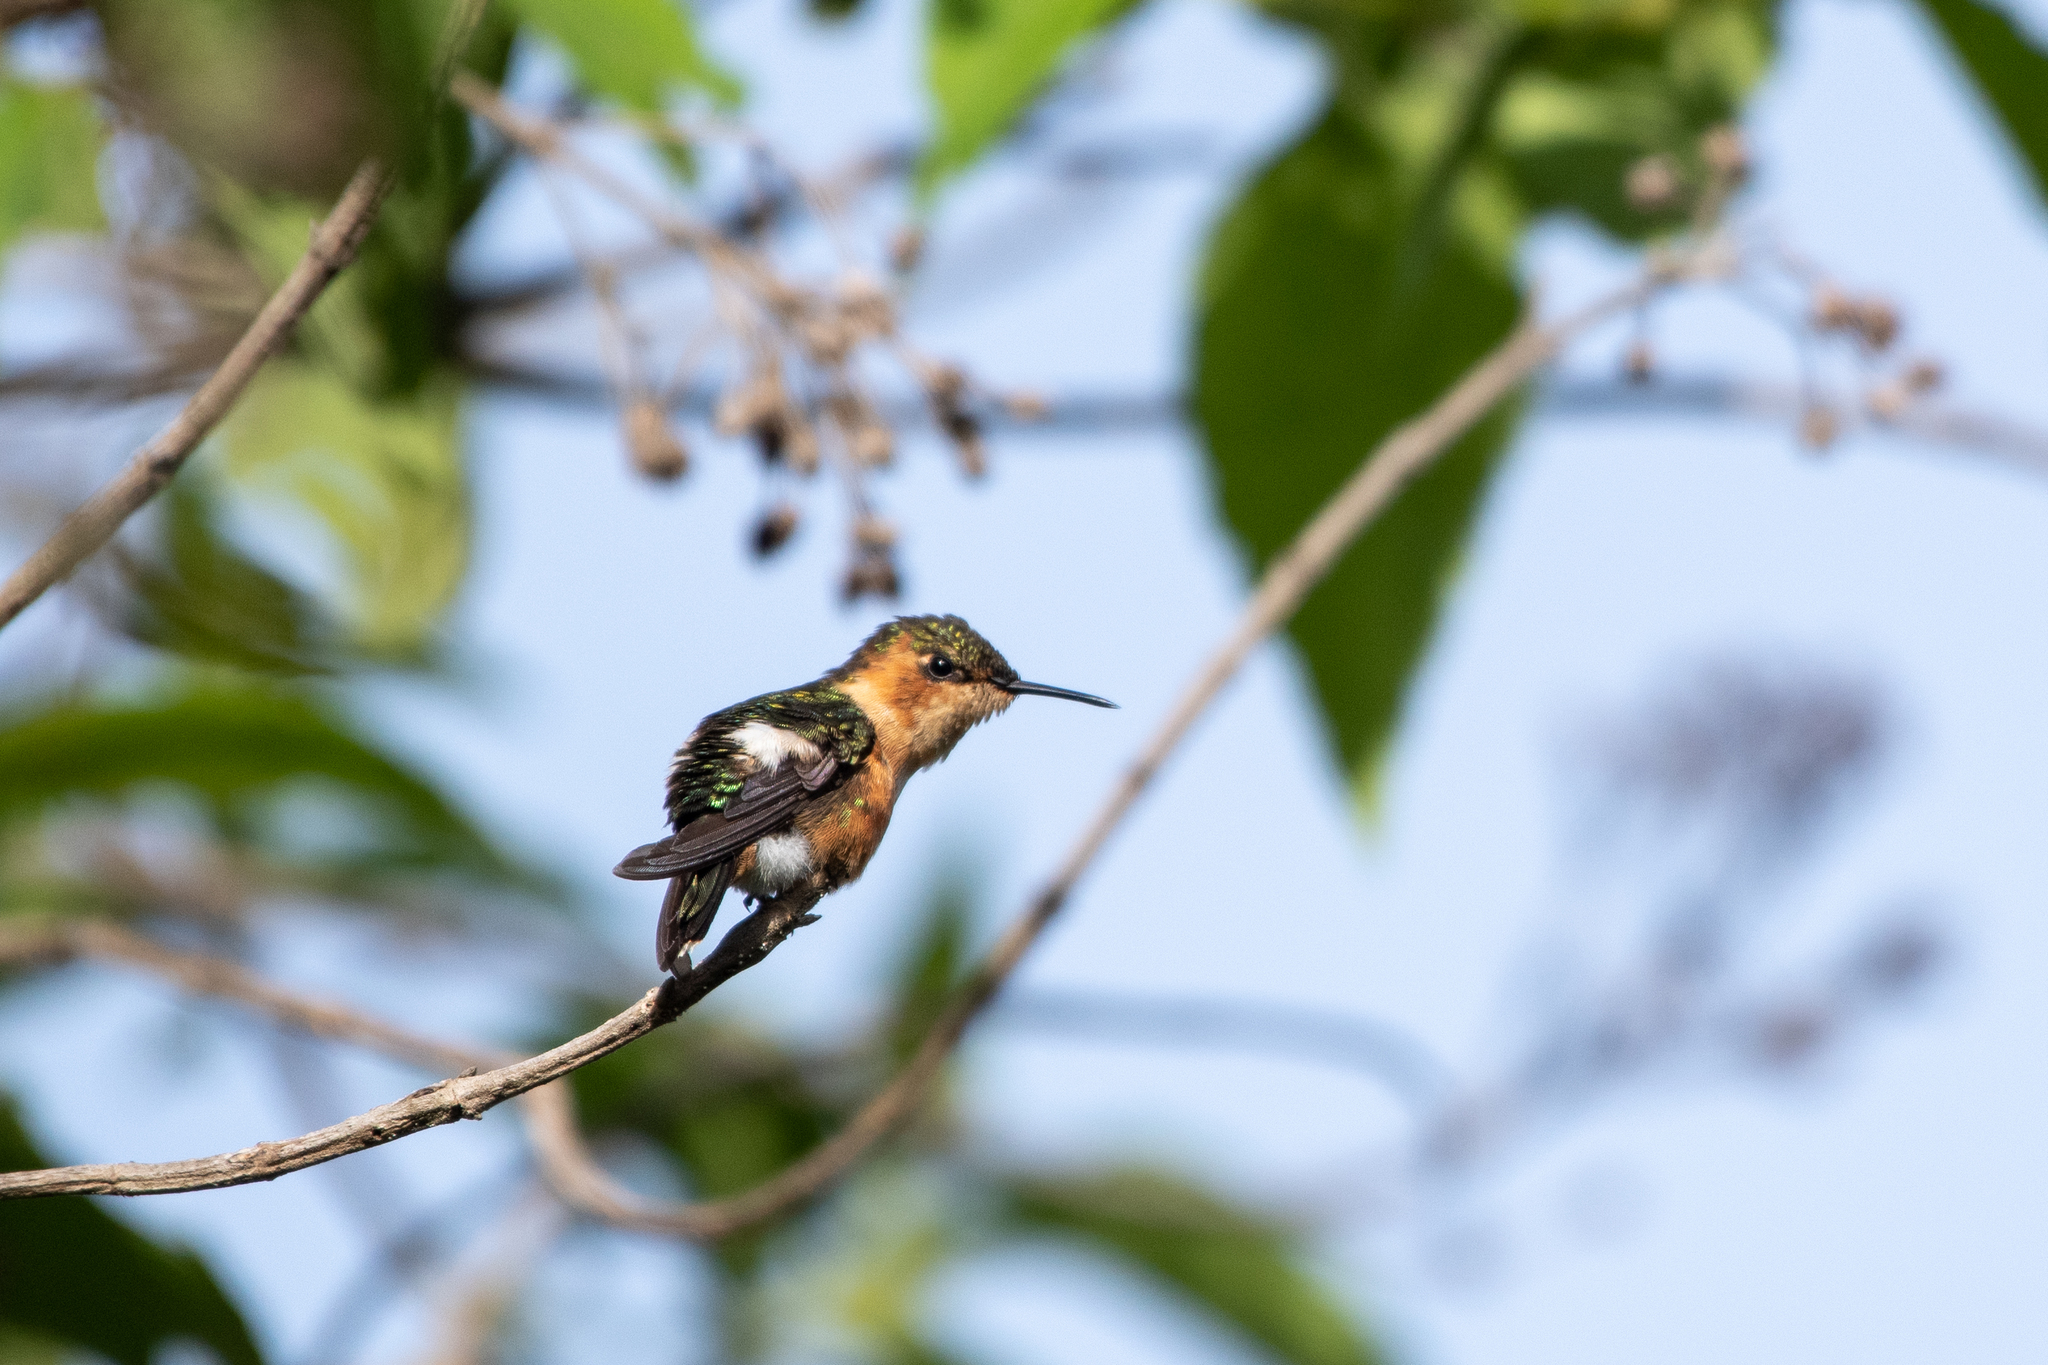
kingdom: Animalia
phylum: Chordata
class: Aves
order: Apodiformes
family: Trochilidae
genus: Tilmatura
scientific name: Tilmatura dupontii
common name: Sparkling-tailed woodstar
